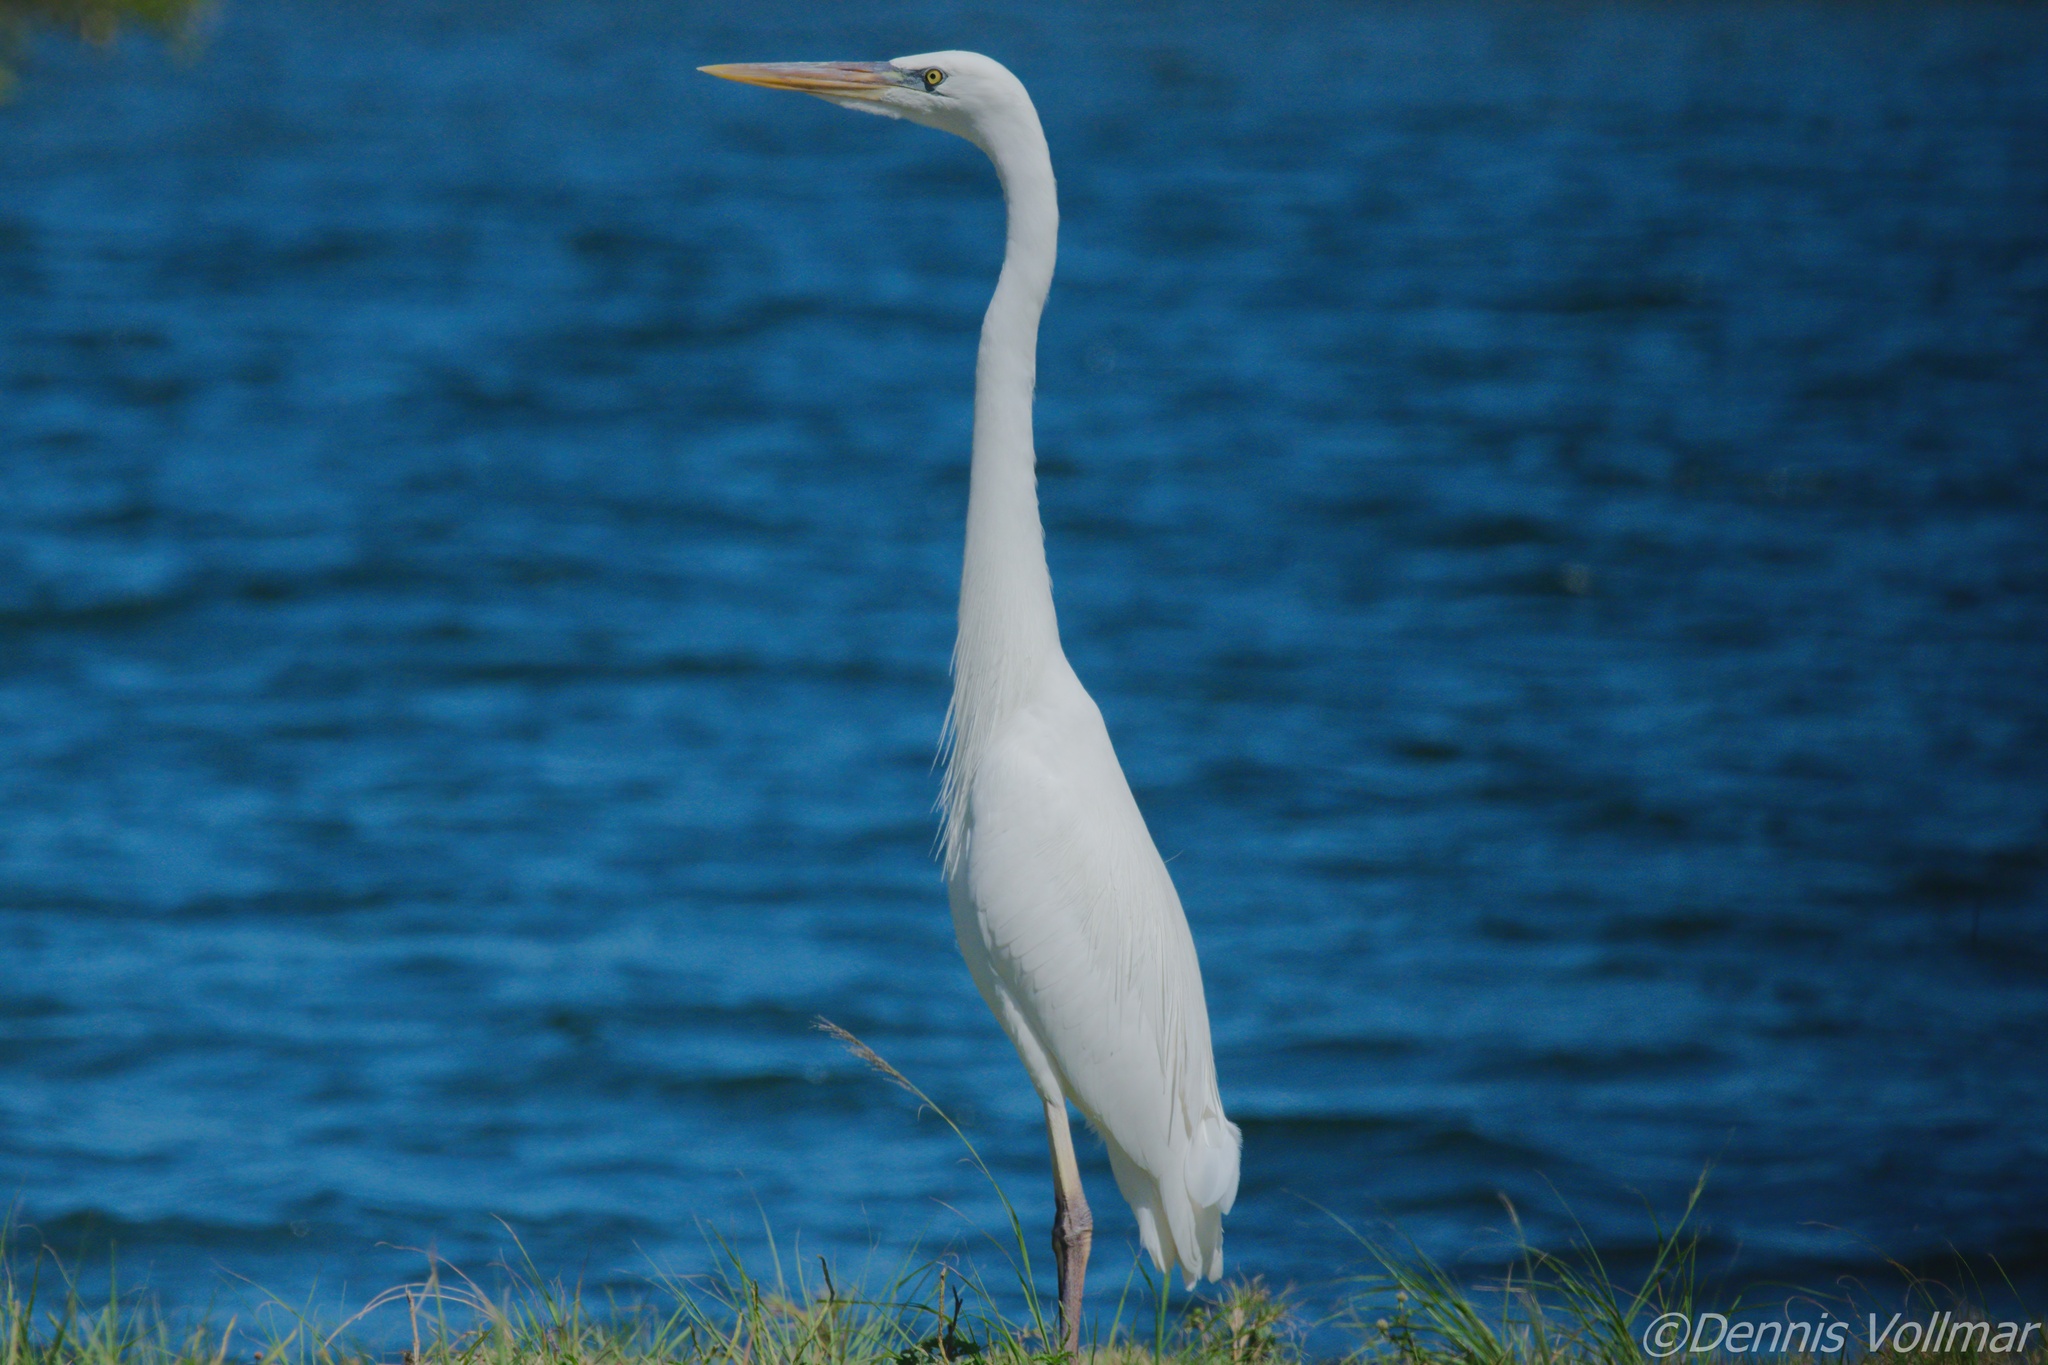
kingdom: Animalia
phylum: Chordata
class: Aves
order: Pelecaniformes
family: Ardeidae
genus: Ardea
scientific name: Ardea herodias
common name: Great blue heron
